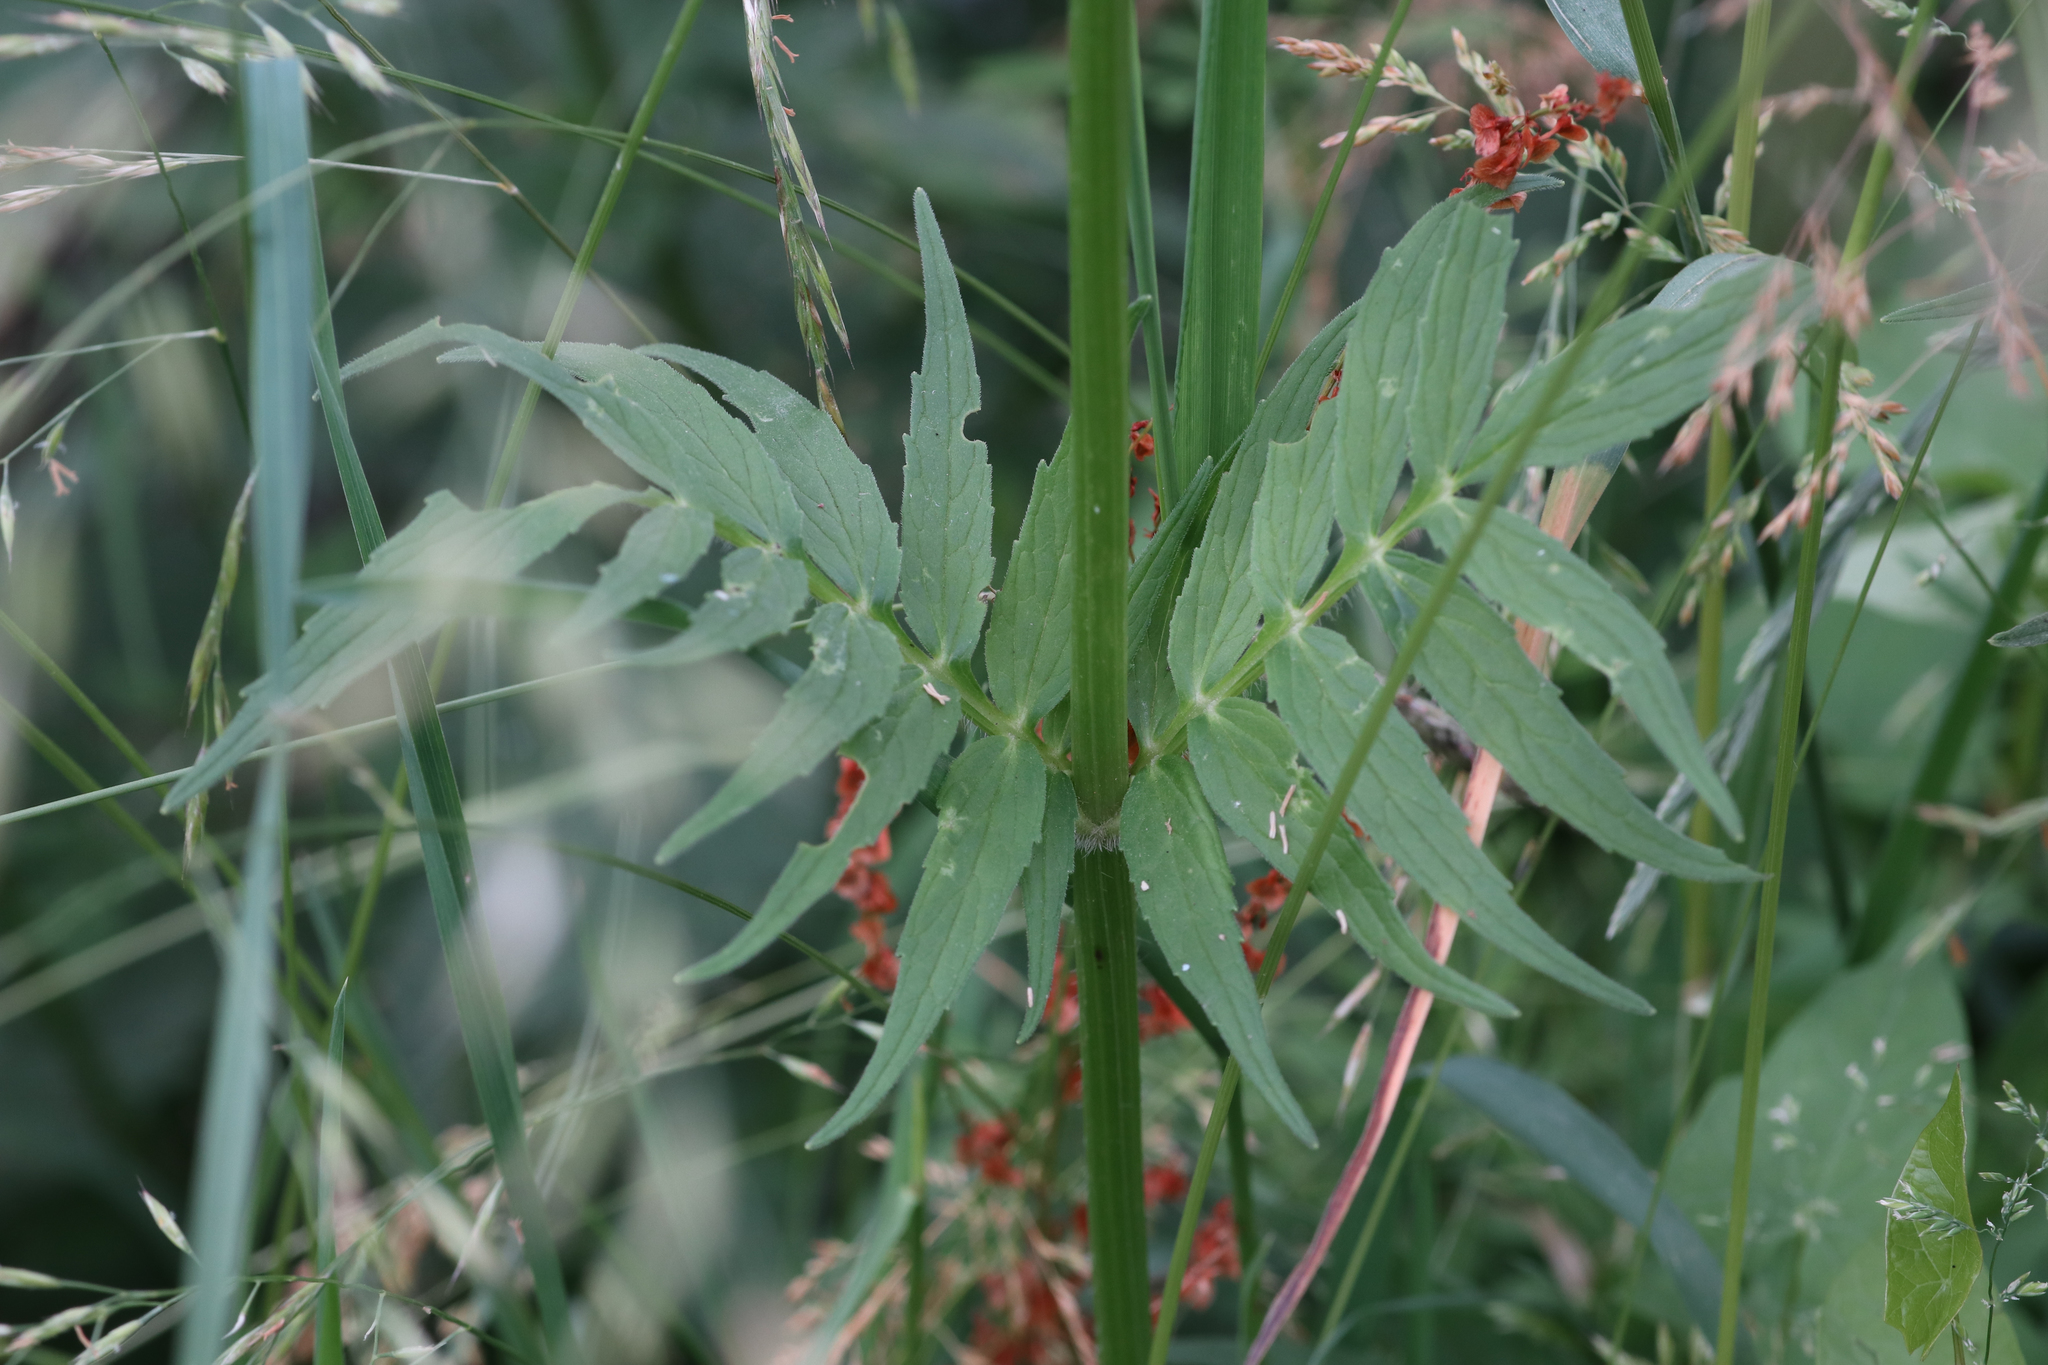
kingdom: Plantae
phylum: Tracheophyta
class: Magnoliopsida
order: Dipsacales
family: Caprifoliaceae
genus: Valeriana
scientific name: Valeriana officinalis
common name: Common valerian
